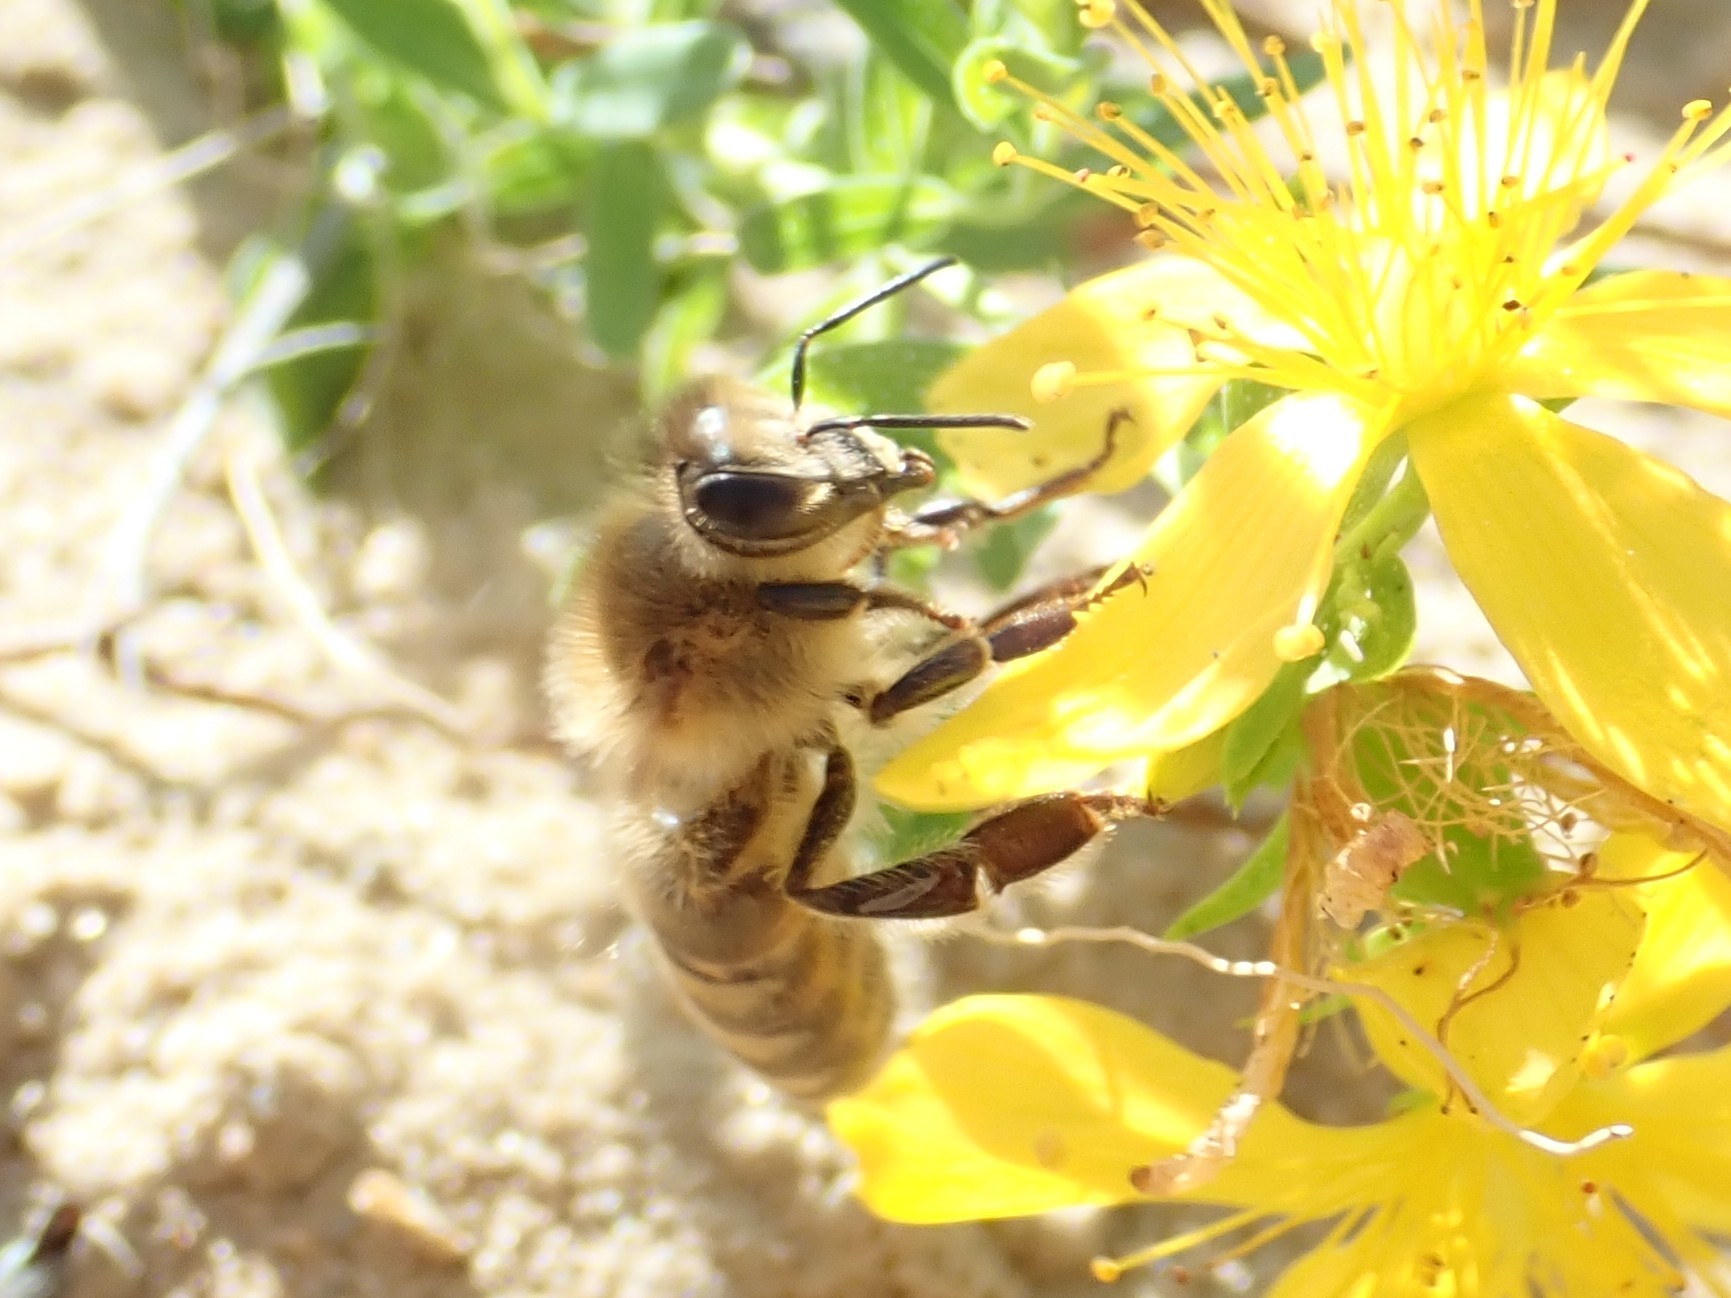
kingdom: Animalia
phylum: Arthropoda
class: Insecta
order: Hymenoptera
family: Apidae
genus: Apis
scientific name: Apis mellifera
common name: Honey bee
